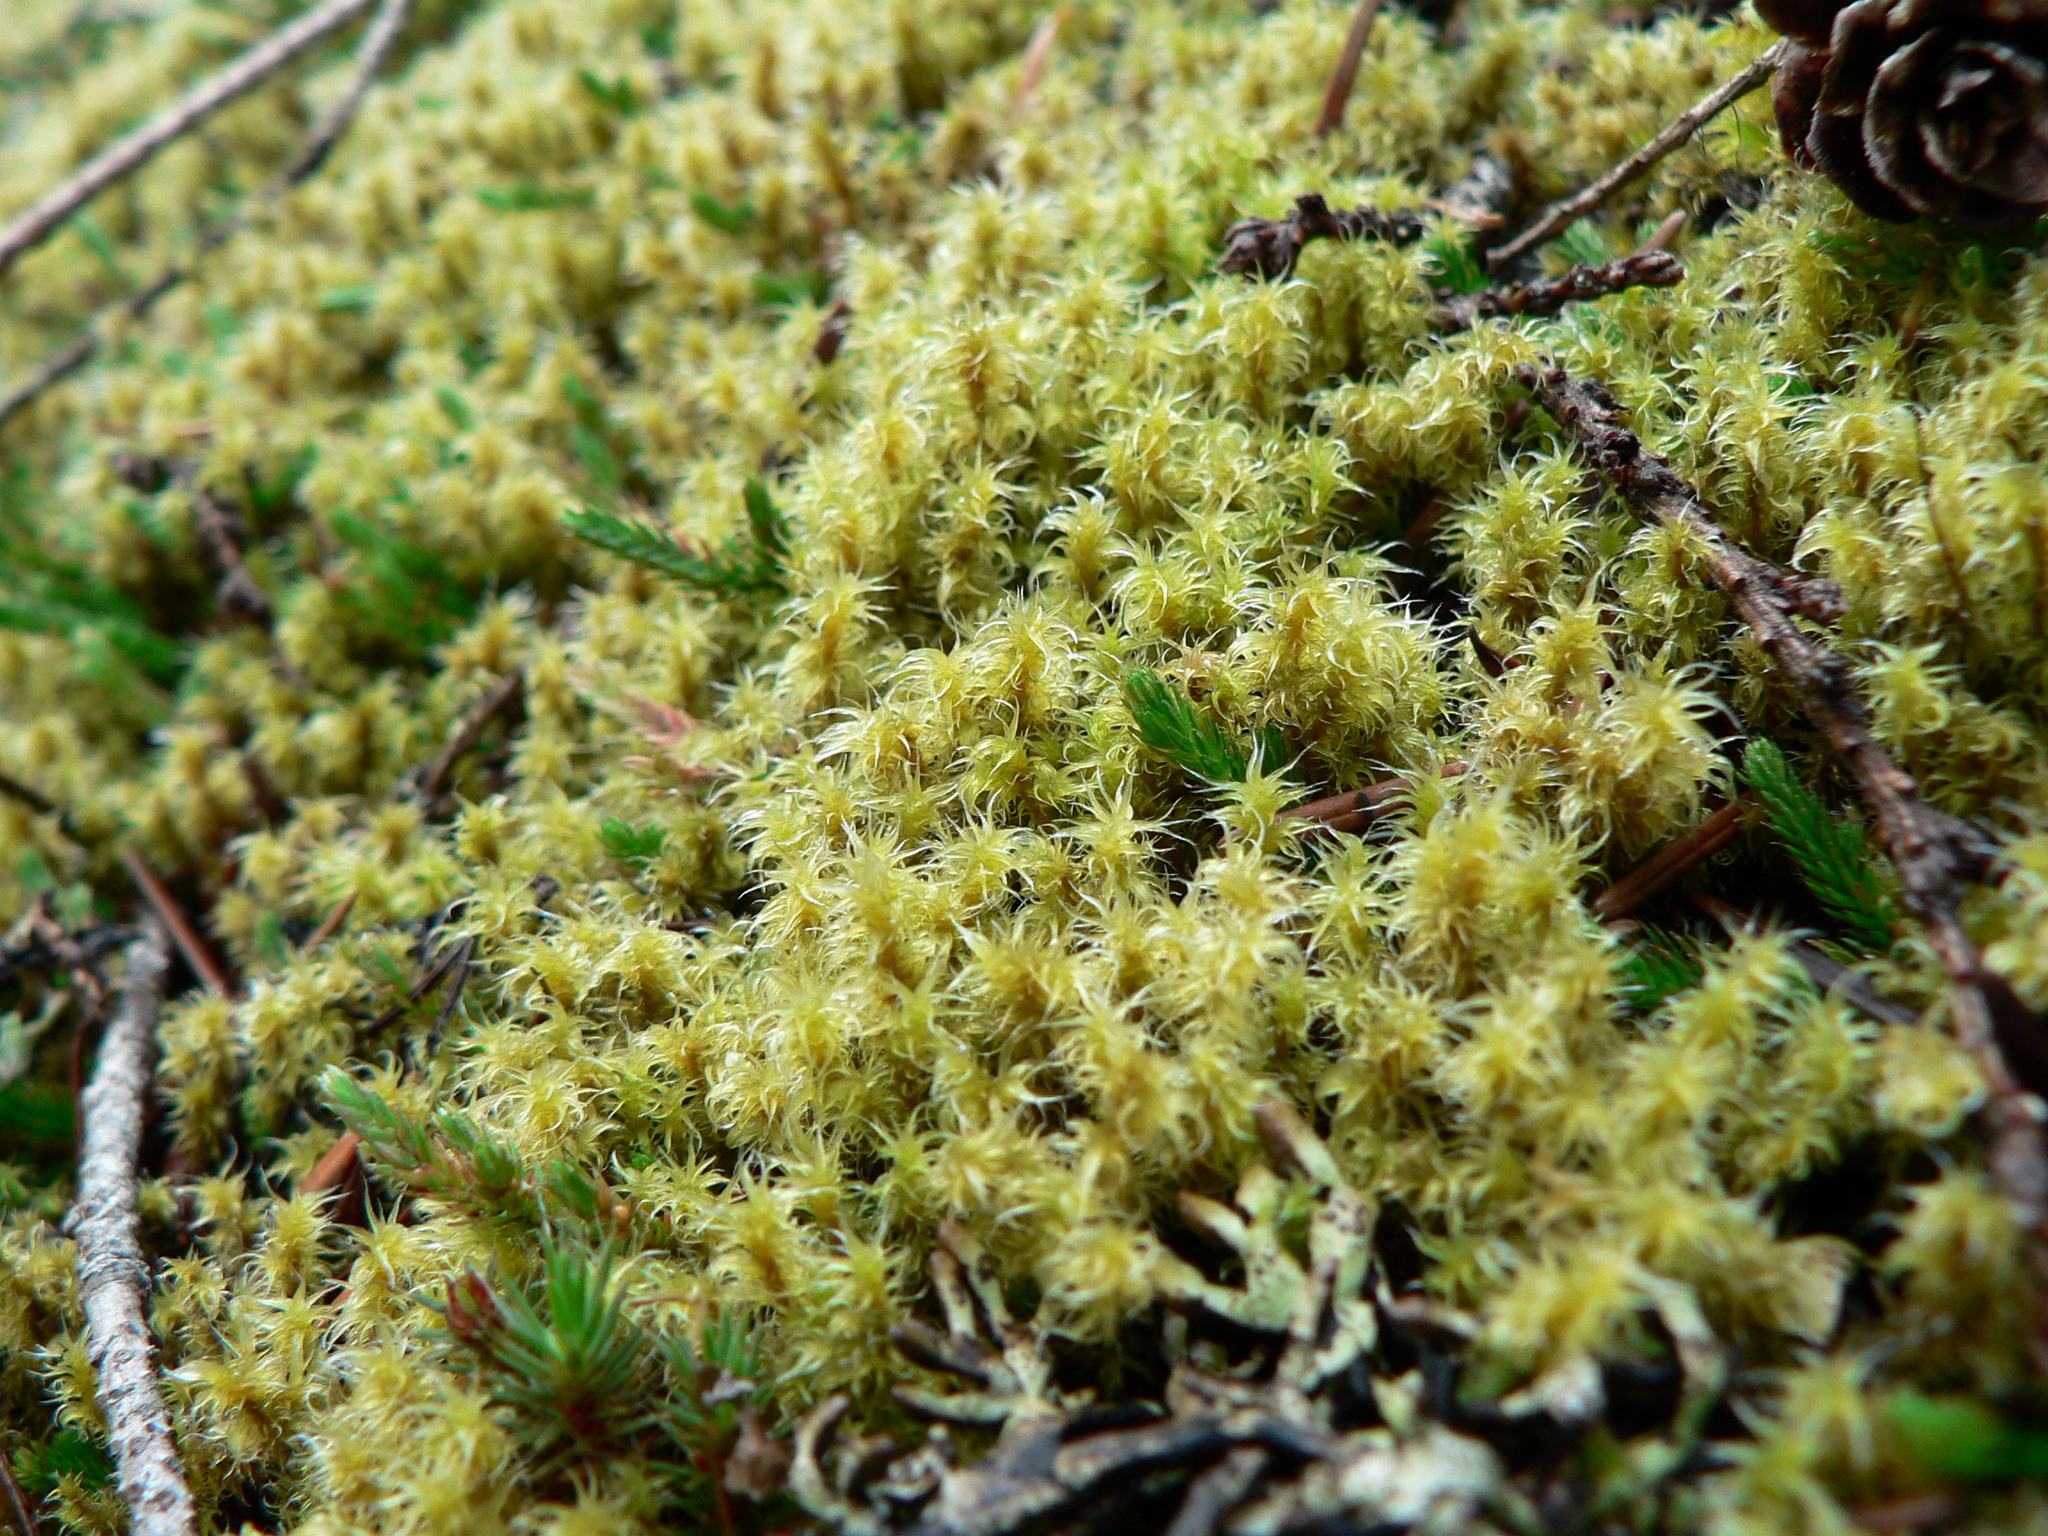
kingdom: Plantae
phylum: Bryophyta
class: Bryopsida
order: Grimmiales
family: Grimmiaceae
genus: Niphotrichum
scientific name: Niphotrichum elongatum
